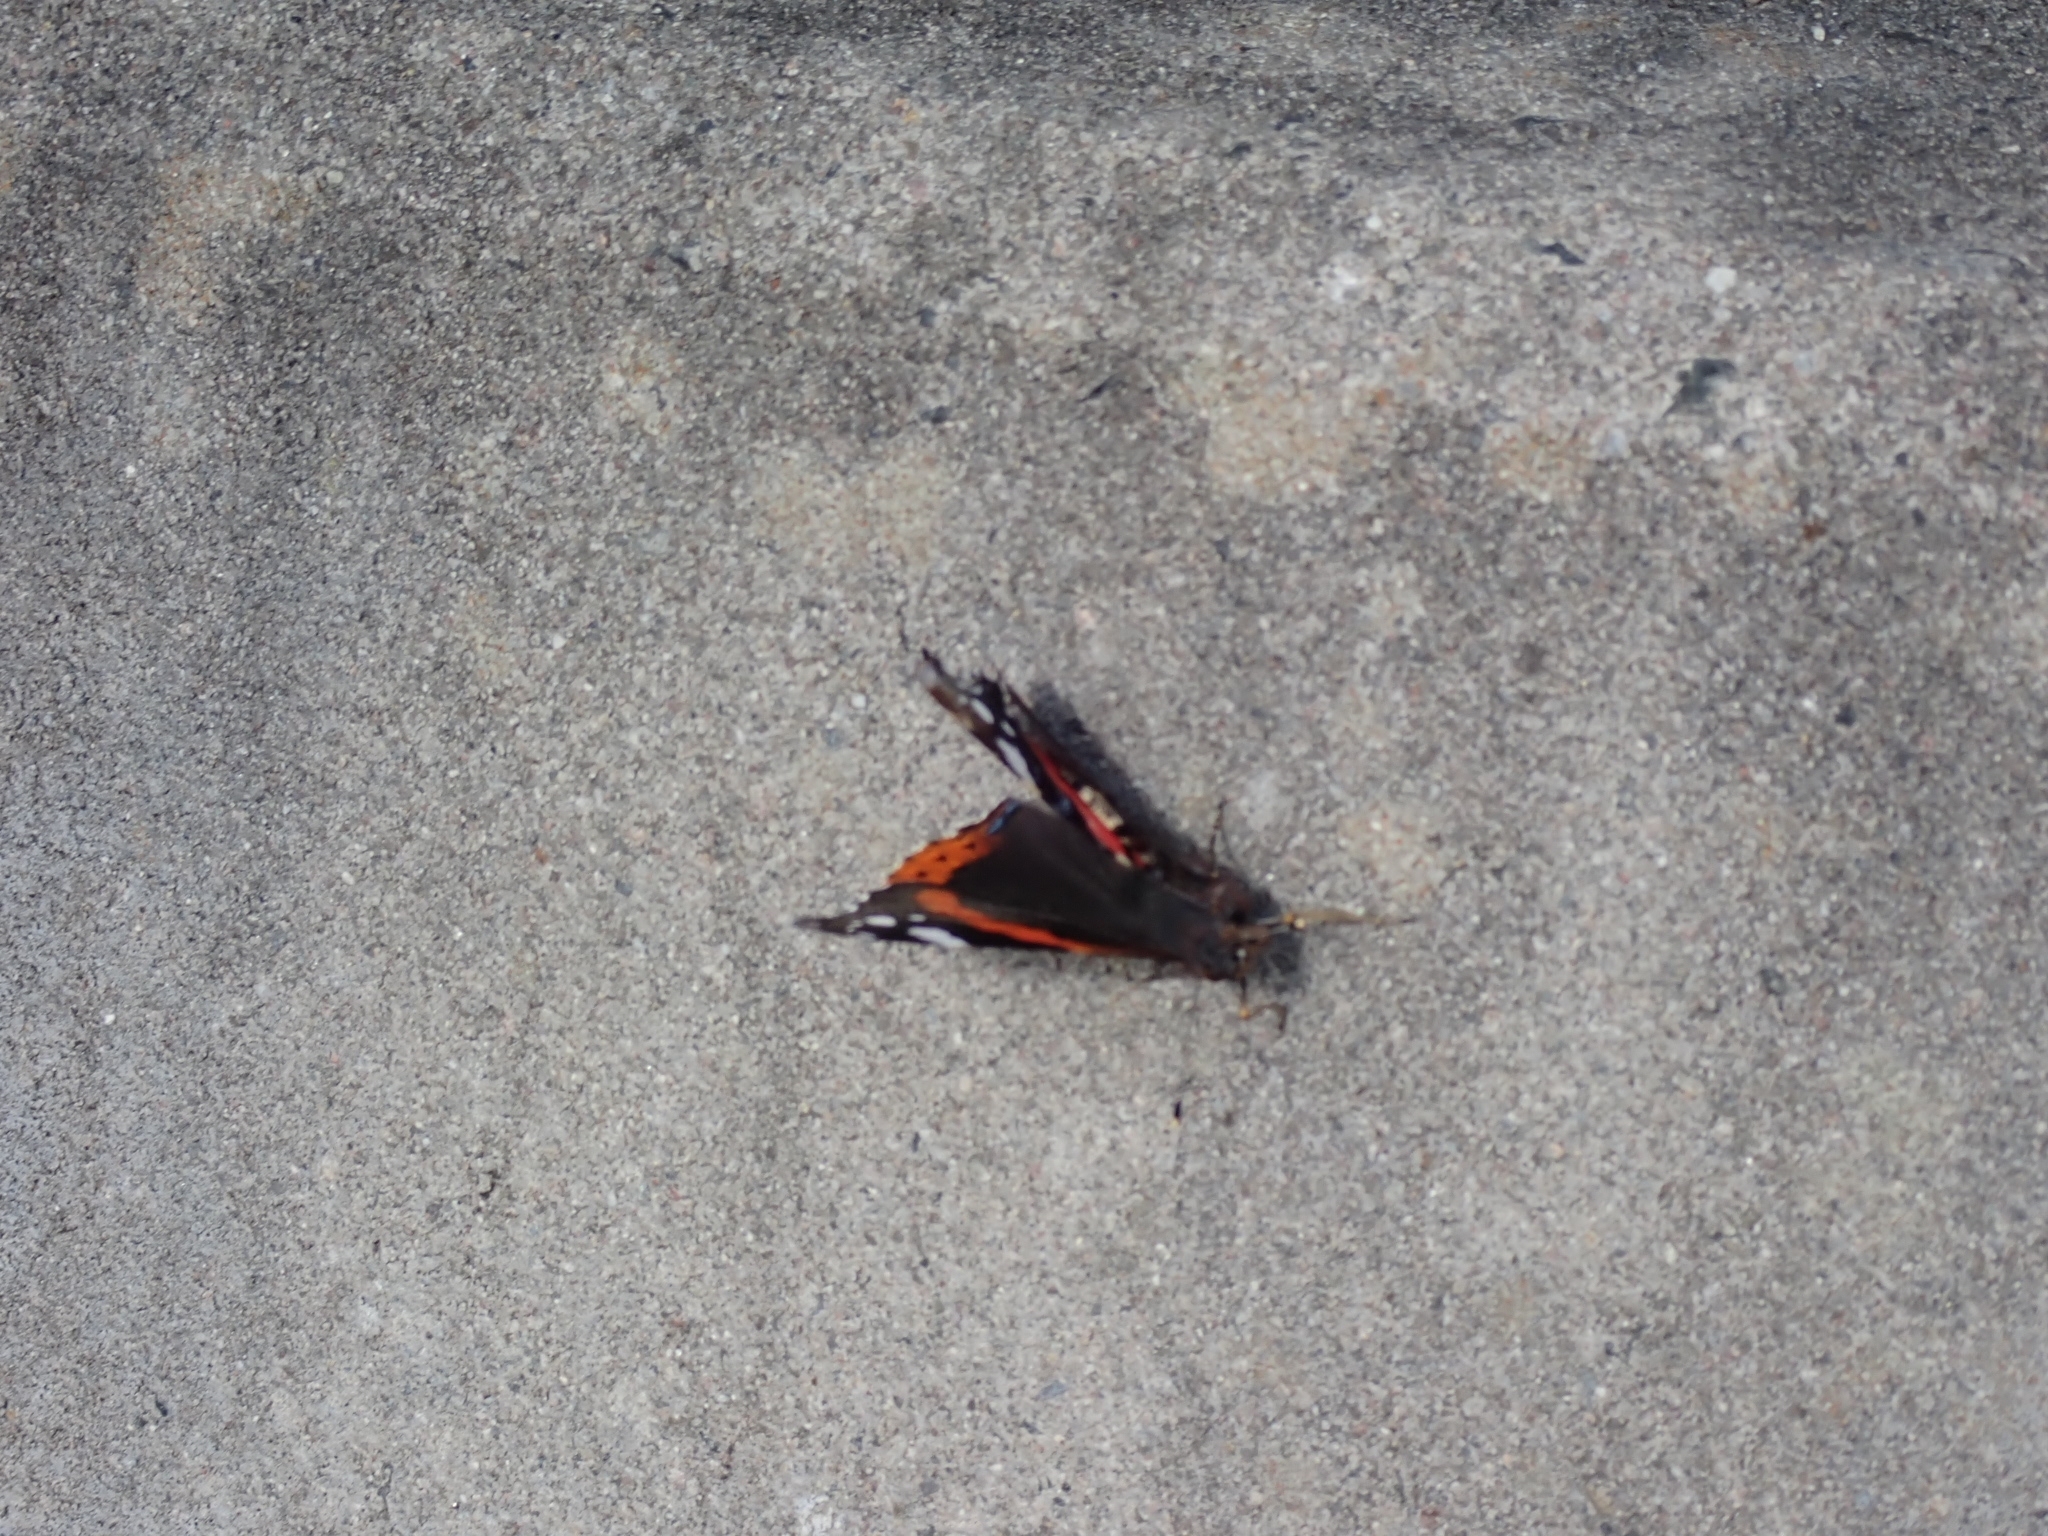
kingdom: Animalia
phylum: Arthropoda
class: Insecta
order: Lepidoptera
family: Nymphalidae
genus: Vanessa
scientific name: Vanessa atalanta
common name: Red admiral
